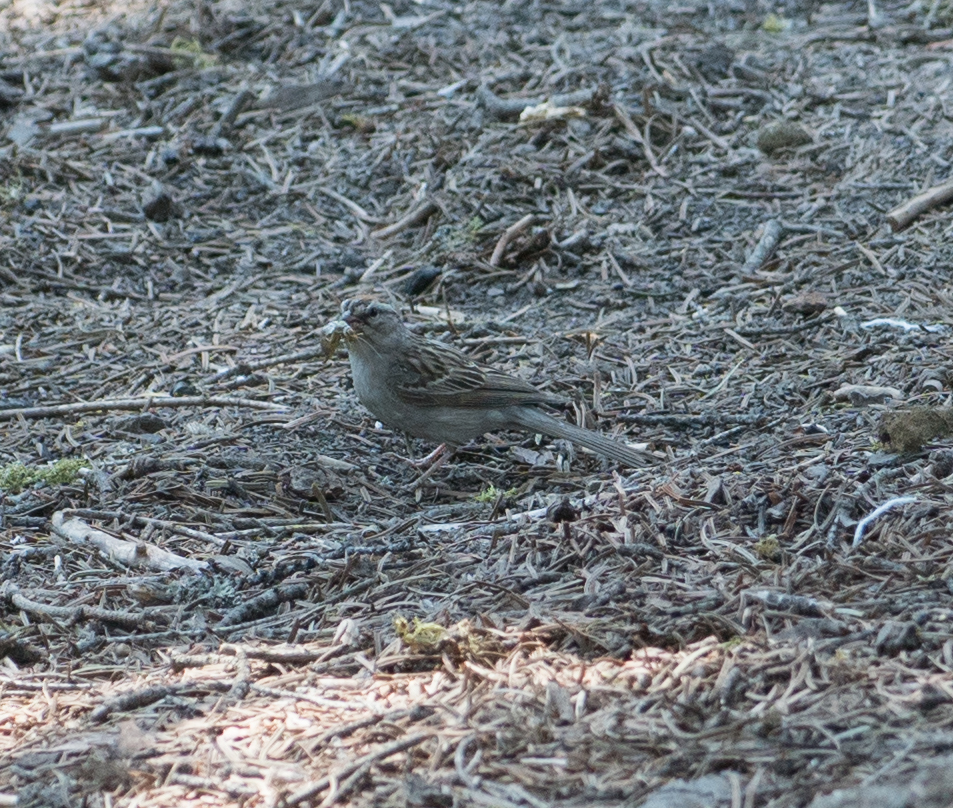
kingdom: Animalia
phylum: Chordata
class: Aves
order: Passeriformes
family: Passerellidae
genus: Spizella
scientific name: Spizella passerina
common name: Chipping sparrow
